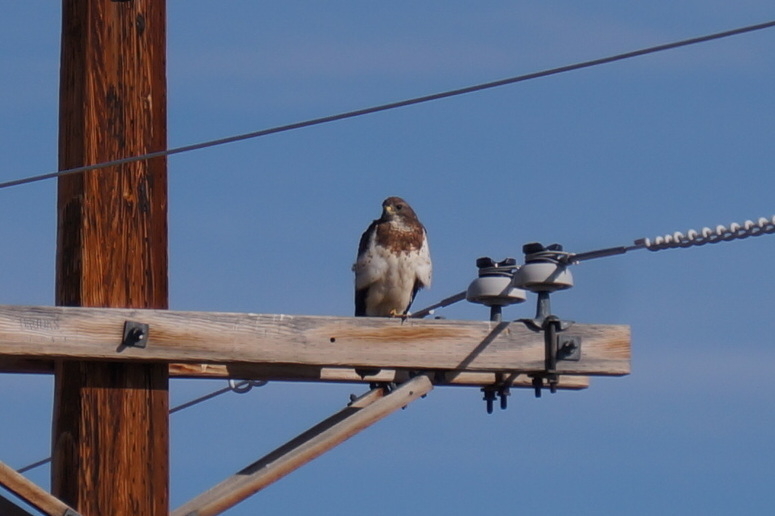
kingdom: Animalia
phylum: Chordata
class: Aves
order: Accipitriformes
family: Accipitridae
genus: Buteo
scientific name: Buteo swainsoni
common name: Swainson's hawk
